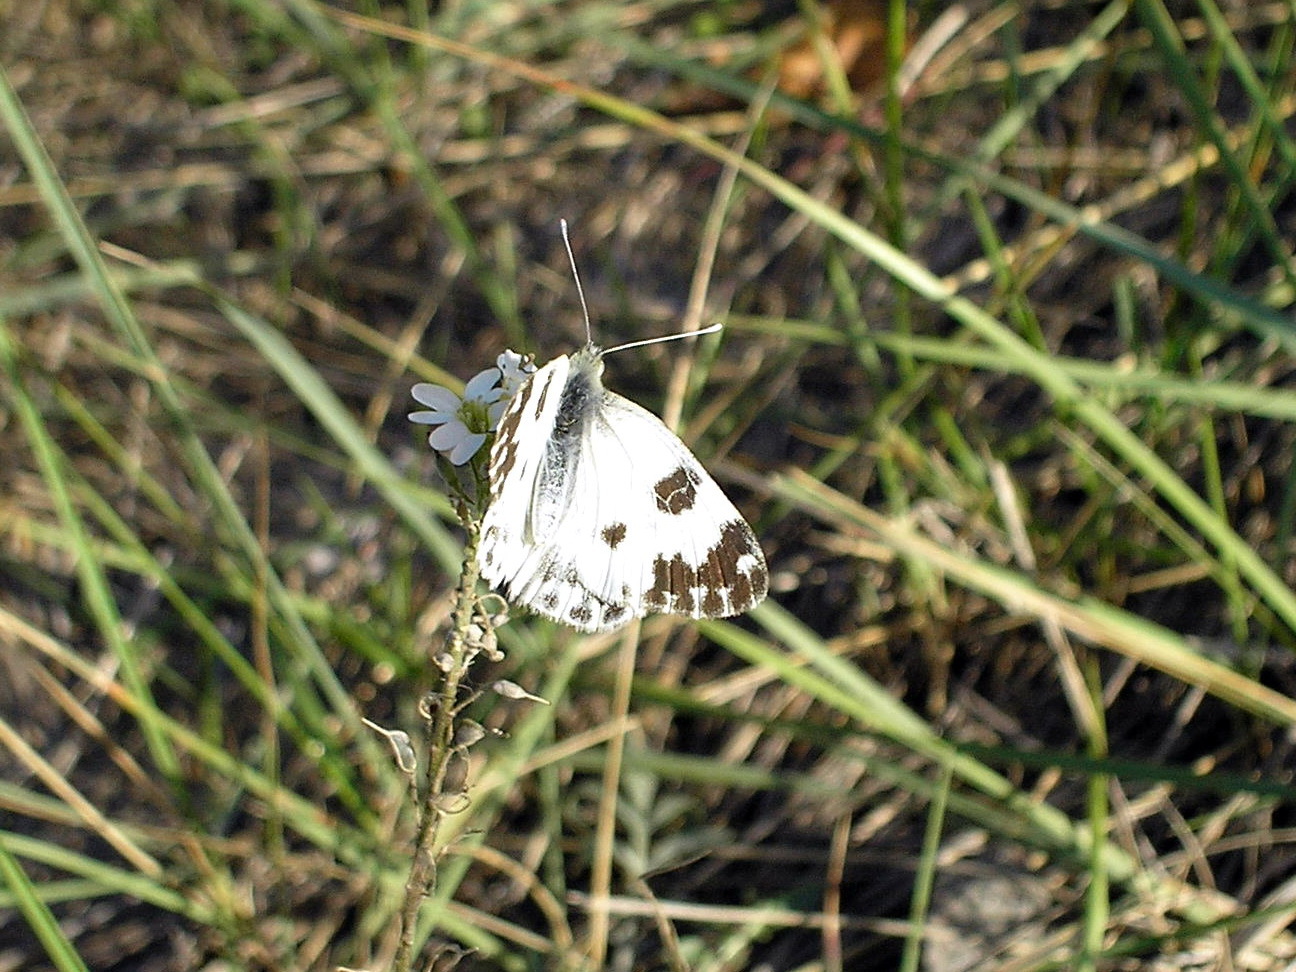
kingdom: Animalia
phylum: Arthropoda
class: Insecta
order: Lepidoptera
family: Pieridae
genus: Pontia
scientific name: Pontia edusa
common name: Eastern bath white
